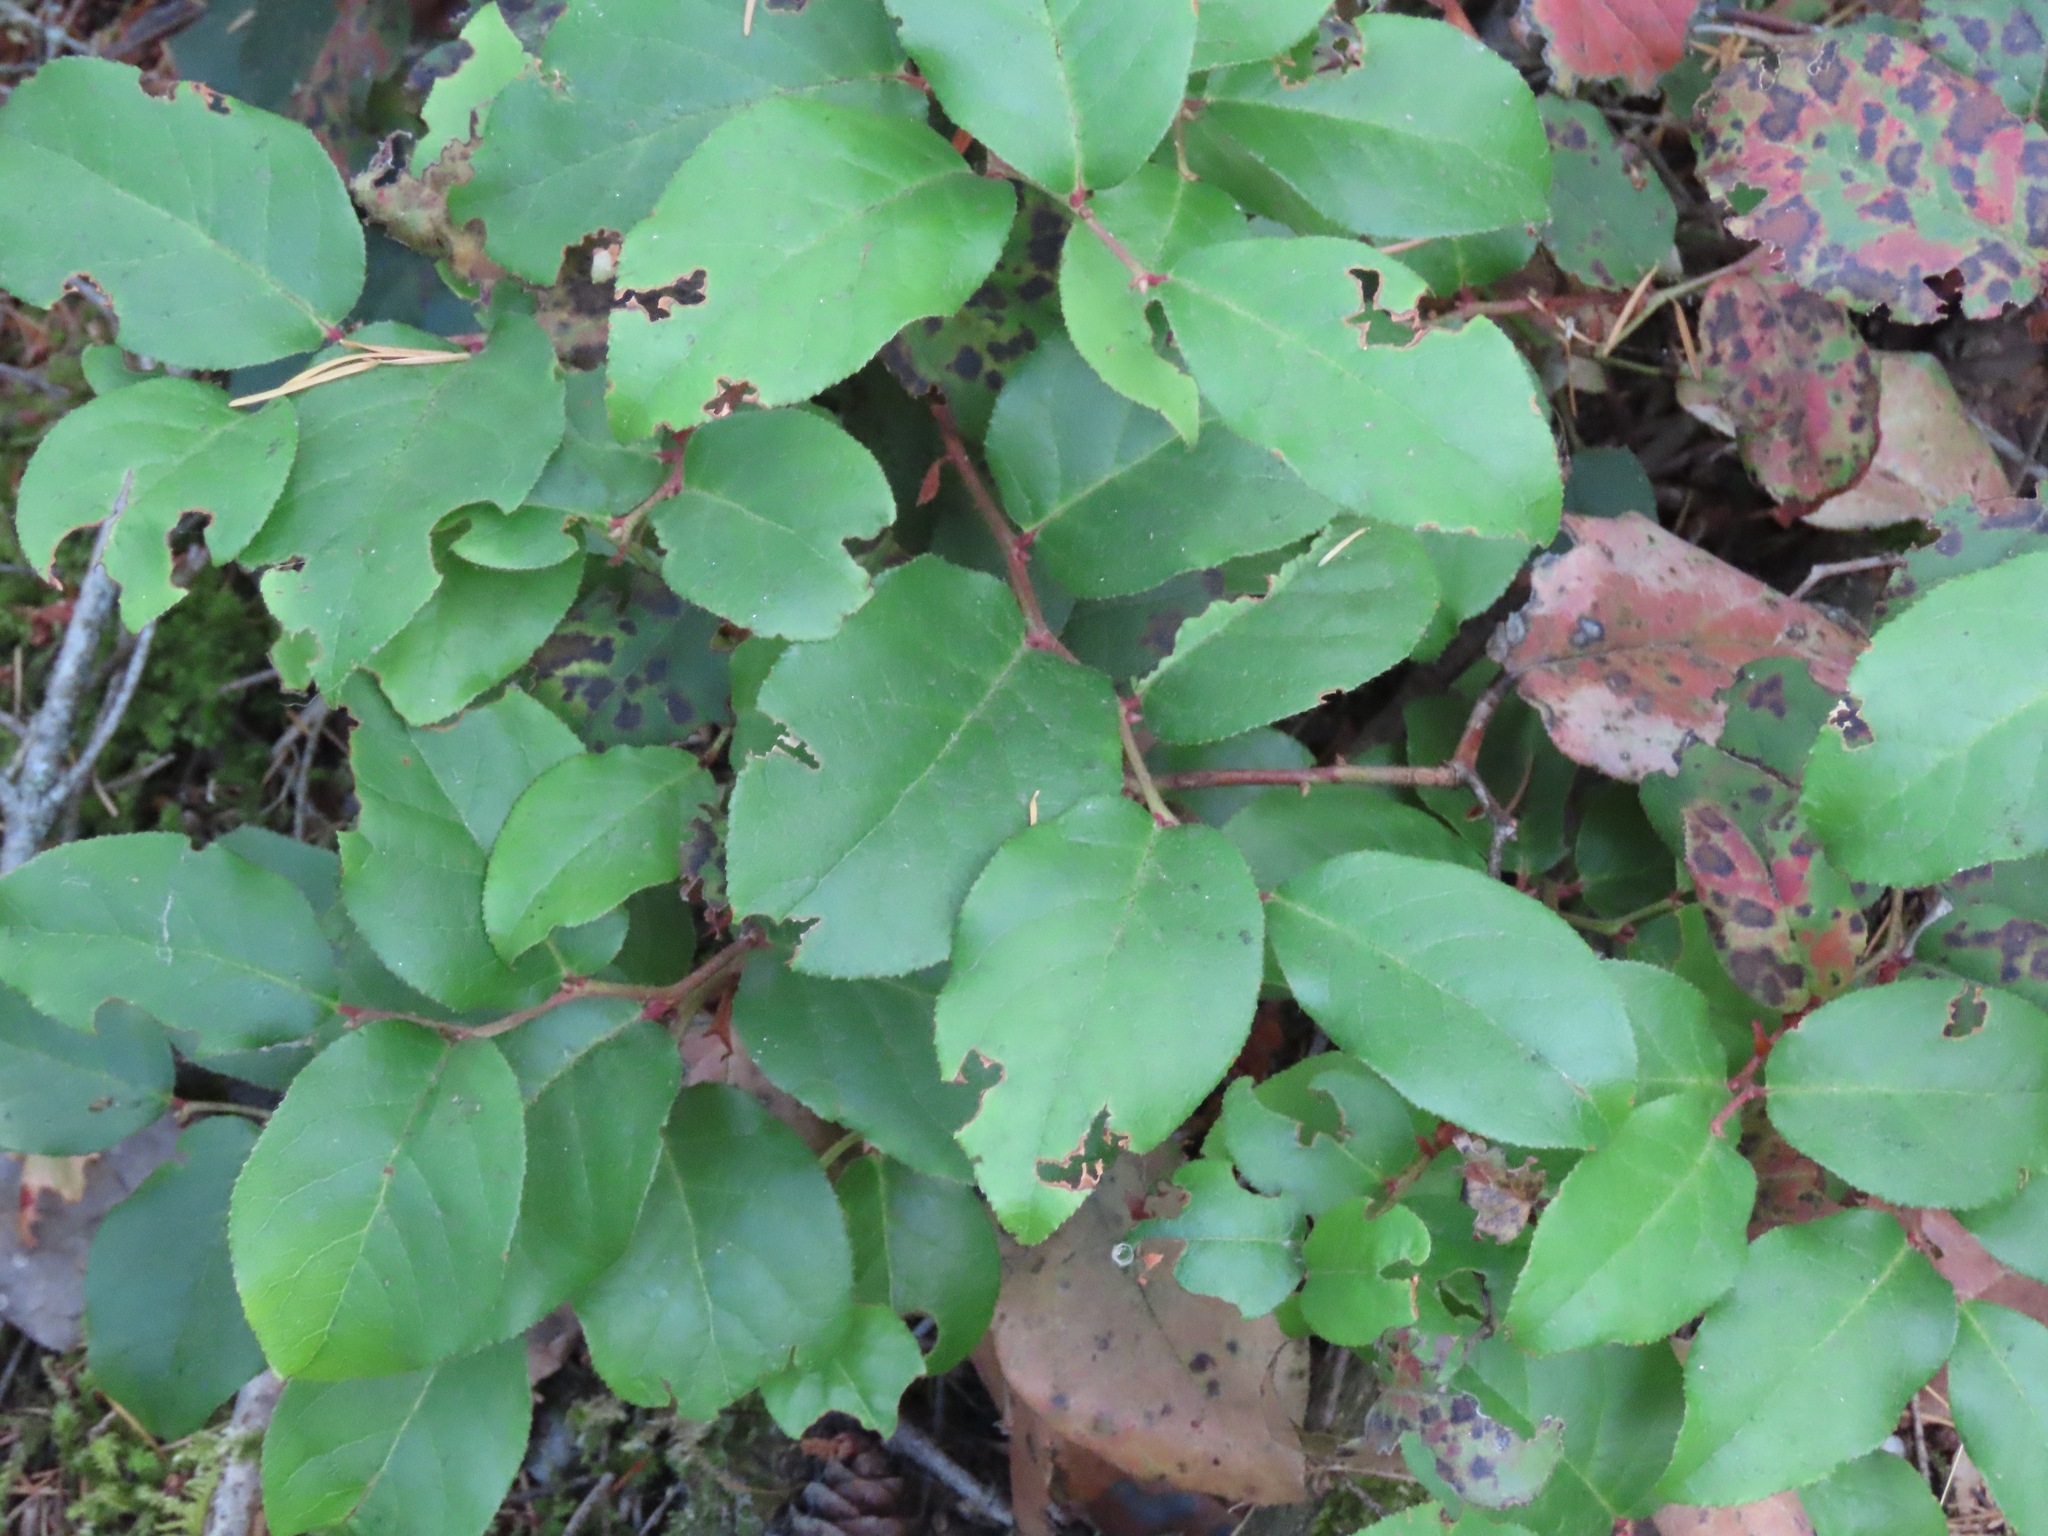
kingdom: Plantae
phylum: Tracheophyta
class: Magnoliopsida
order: Ericales
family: Ericaceae
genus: Gaultheria
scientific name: Gaultheria shallon
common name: Shallon
